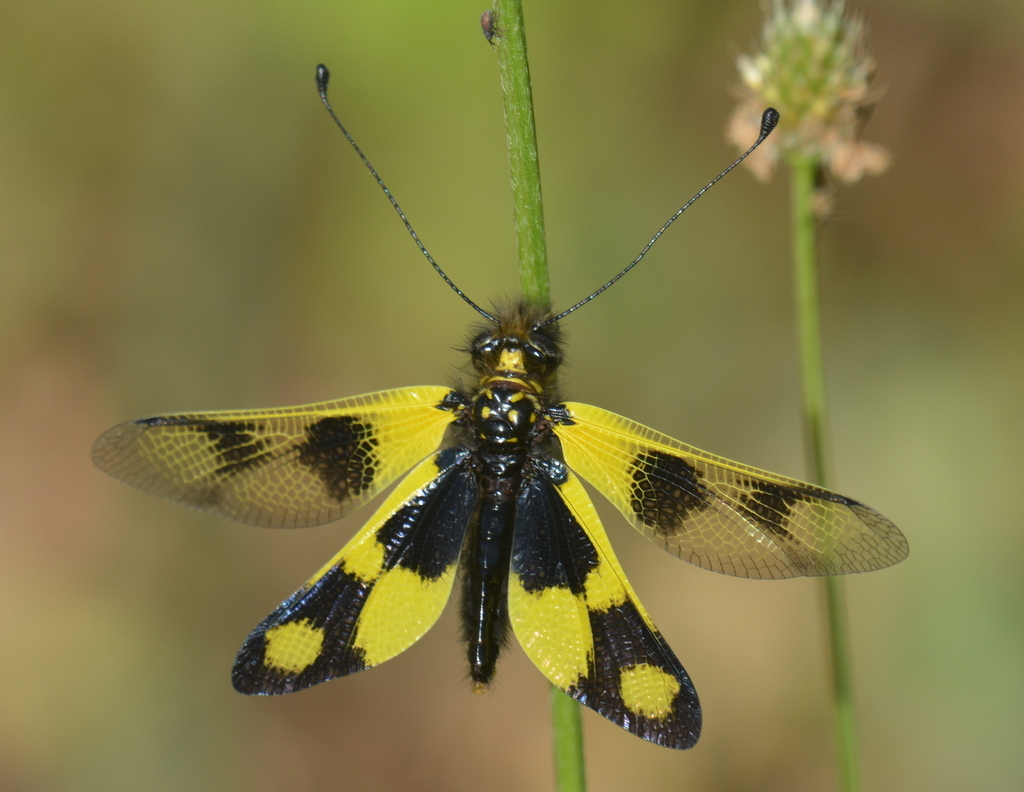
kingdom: Animalia
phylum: Arthropoda
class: Insecta
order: Neuroptera
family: Ascalaphidae
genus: Libelloides
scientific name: Libelloides macaronius
